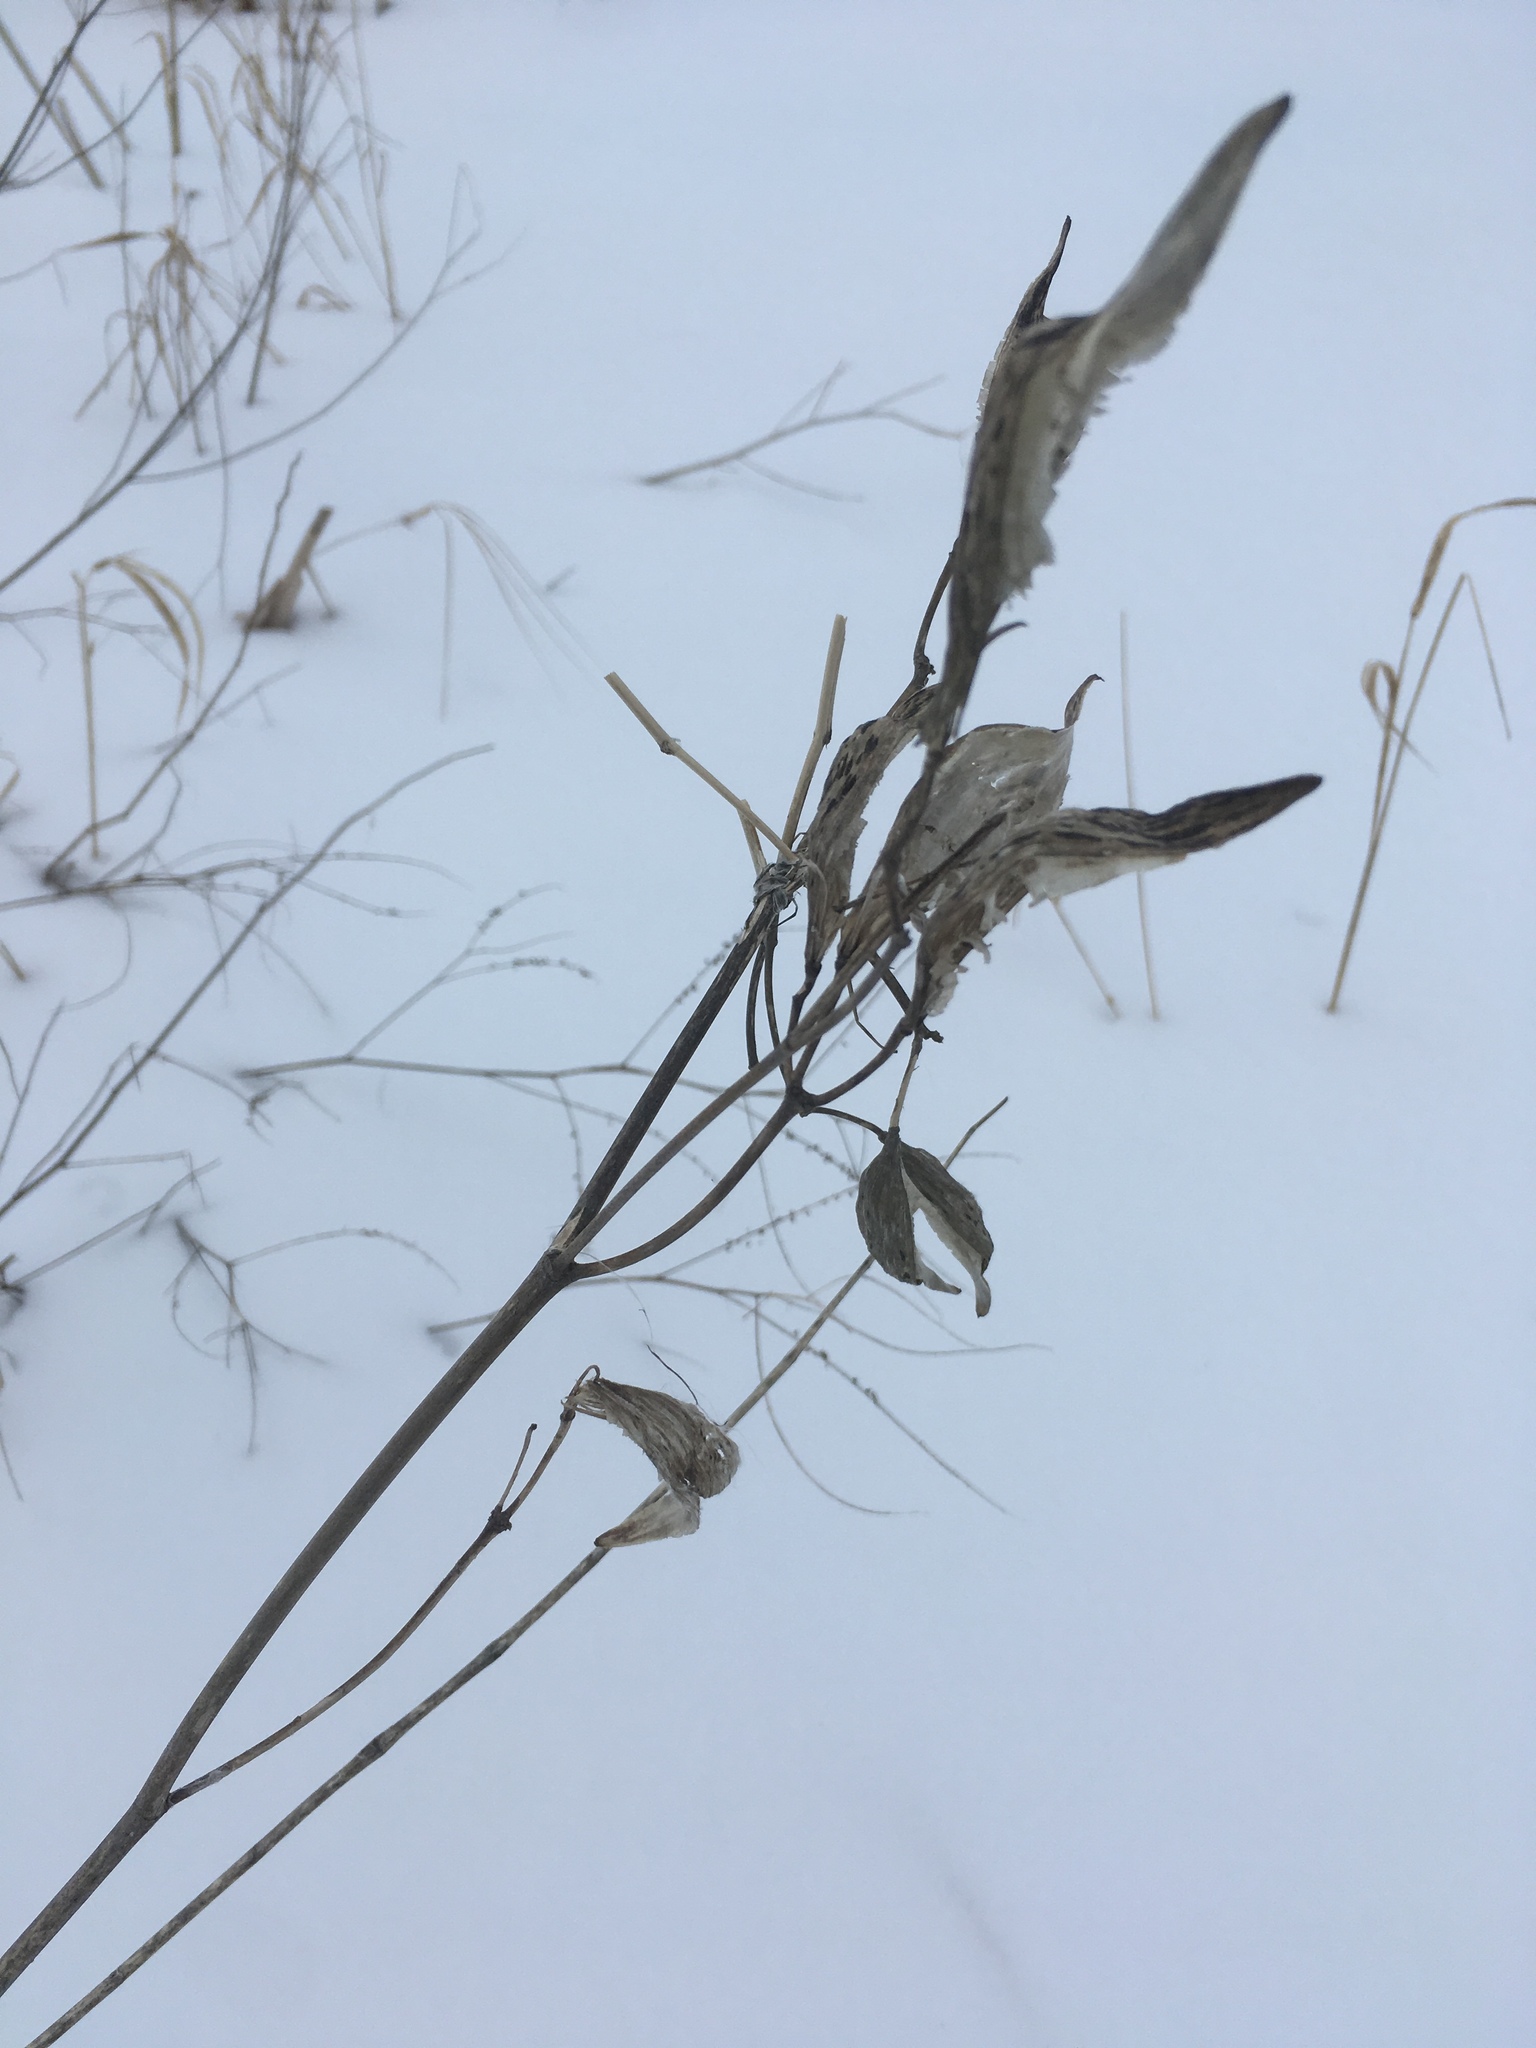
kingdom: Plantae
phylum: Tracheophyta
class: Magnoliopsida
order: Gentianales
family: Apocynaceae
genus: Asclepias
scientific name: Asclepias incarnata
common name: Swamp milkweed
